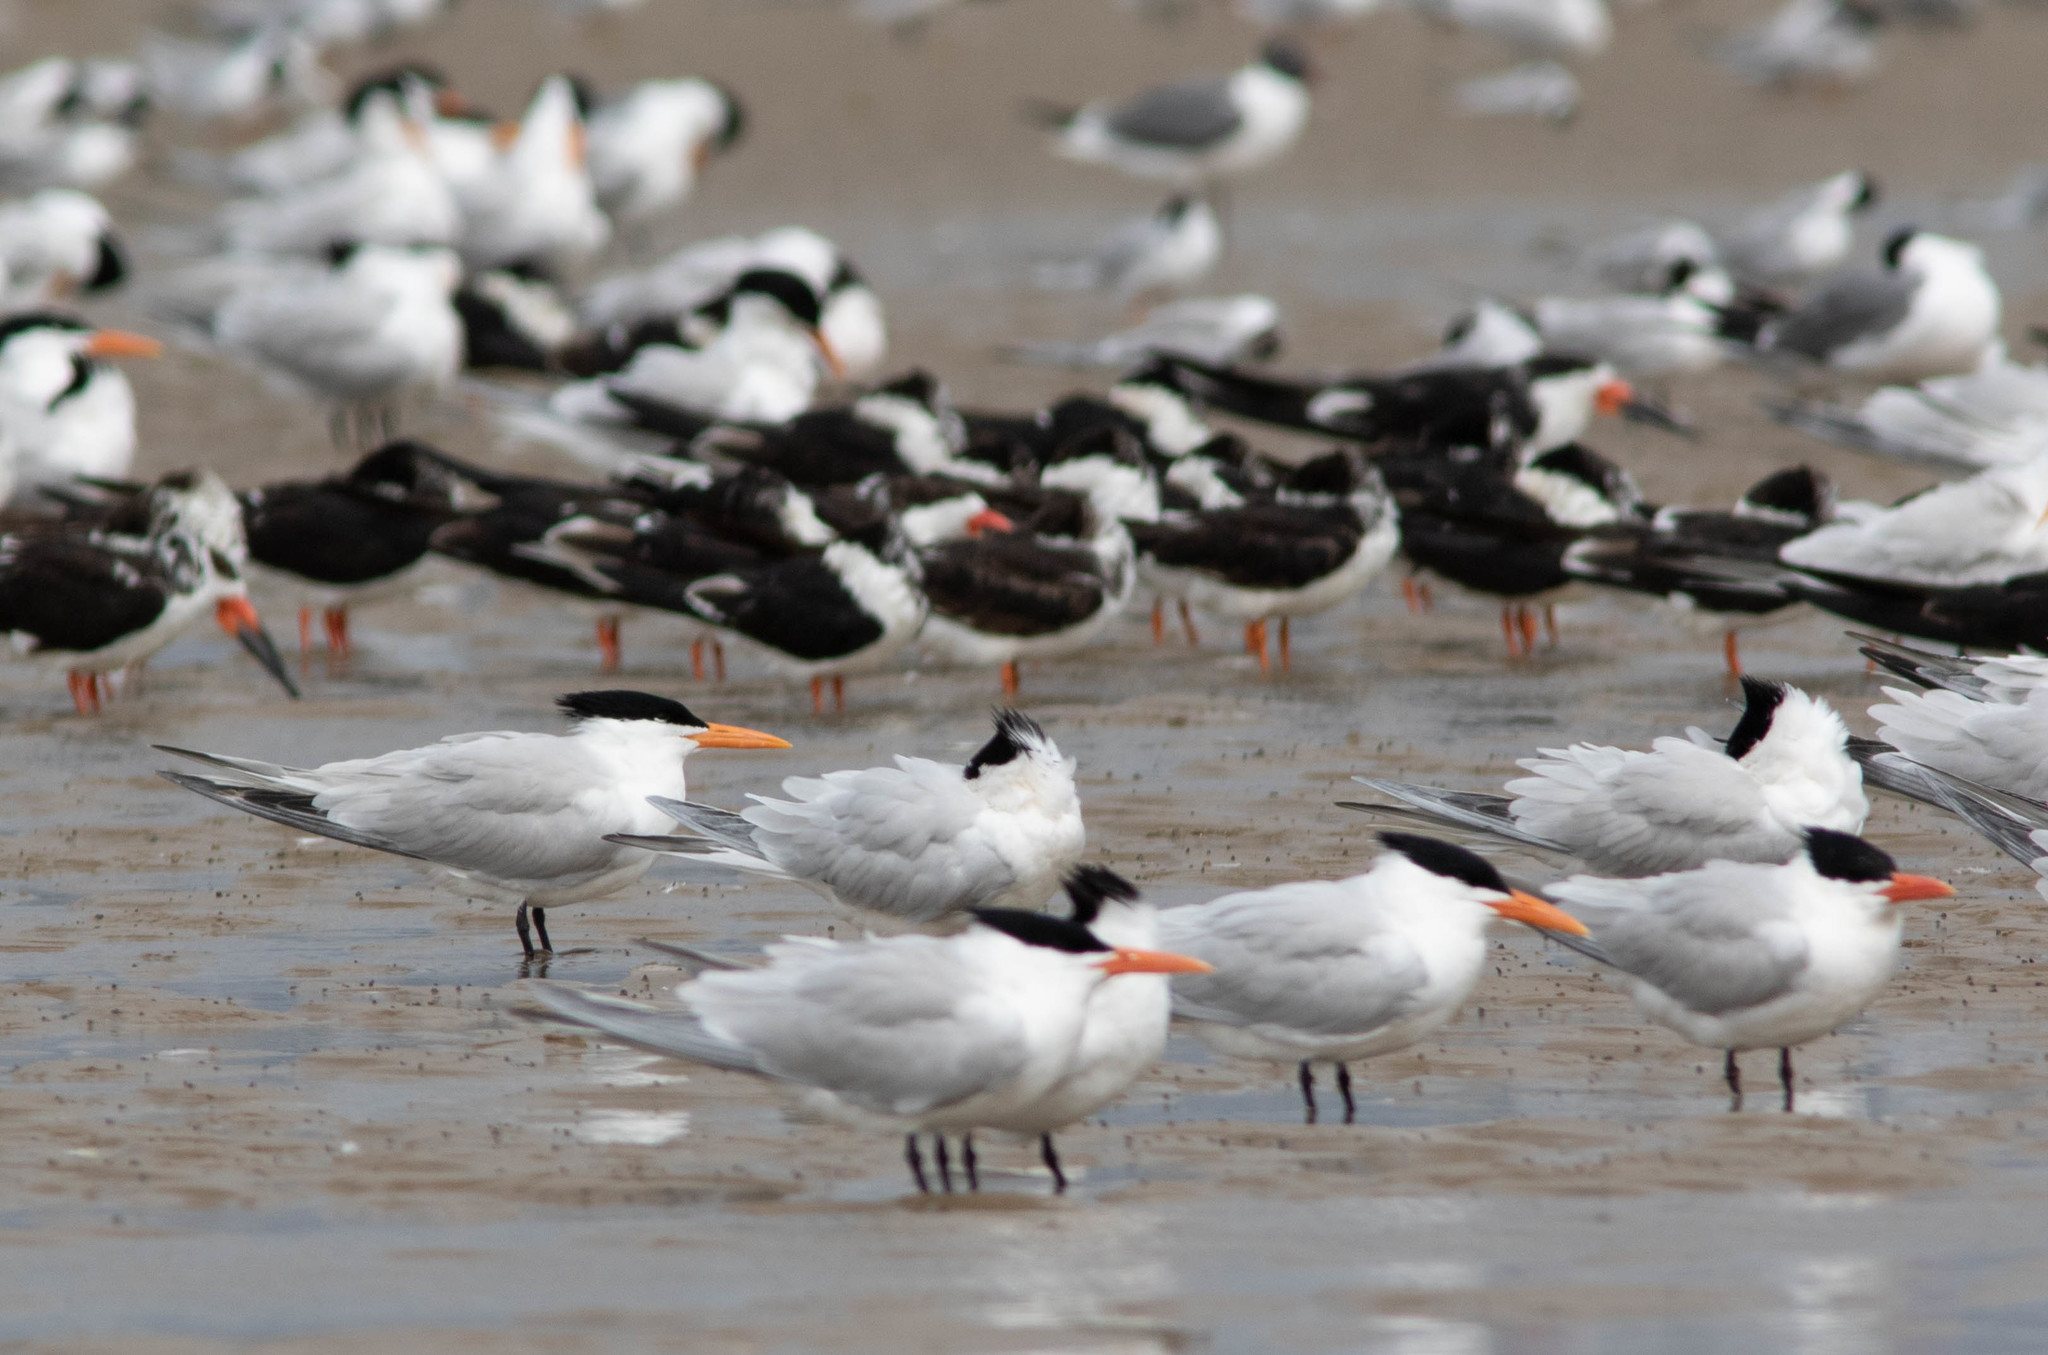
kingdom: Animalia
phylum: Chordata
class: Aves
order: Charadriiformes
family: Laridae
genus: Thalasseus
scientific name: Thalasseus maximus
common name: Royal tern
